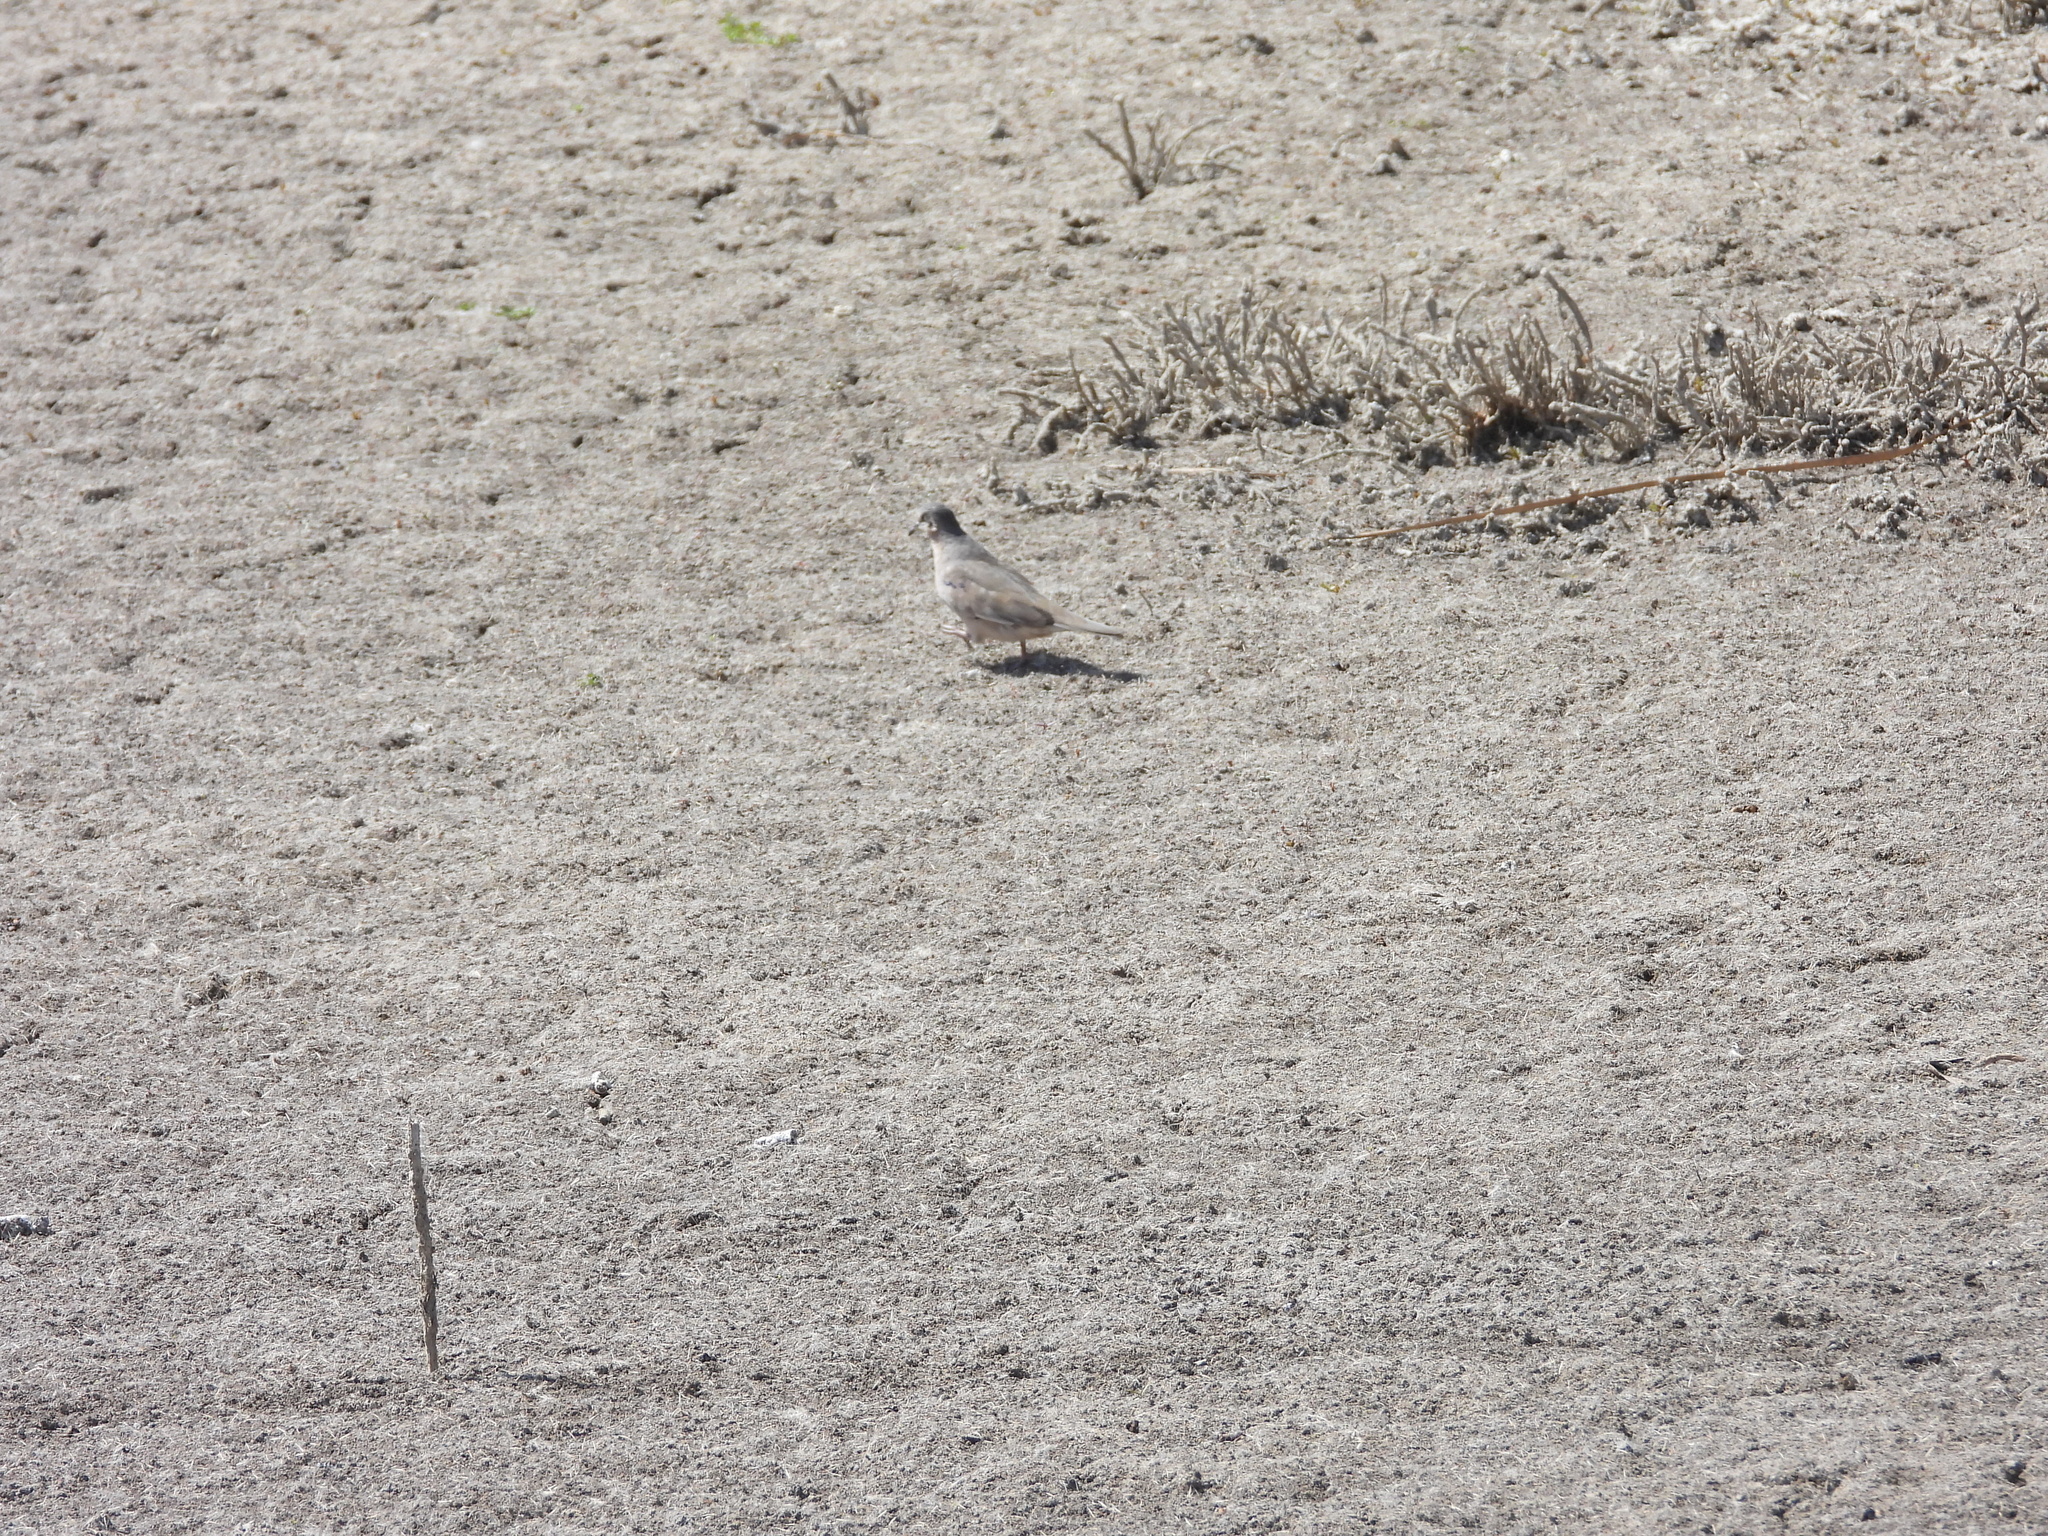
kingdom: Animalia
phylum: Chordata
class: Aves
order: Columbiformes
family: Columbidae
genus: Columbina
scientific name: Columbina picui
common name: Picui ground dove
